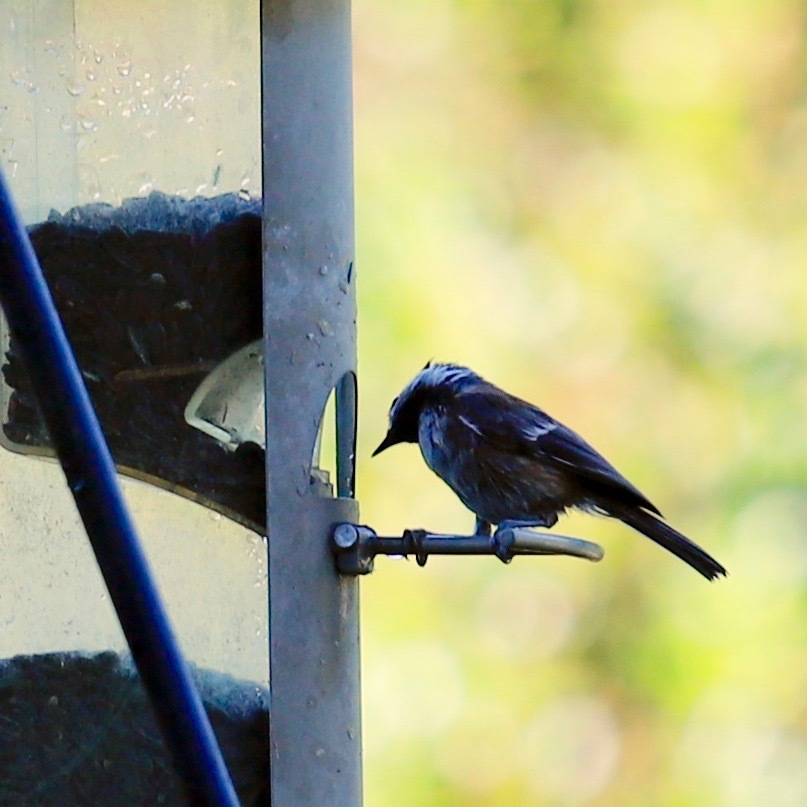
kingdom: Animalia
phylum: Chordata
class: Aves
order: Passeriformes
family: Paridae
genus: Poecile
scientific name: Poecile rufescens
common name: Chestnut-backed chickadee
